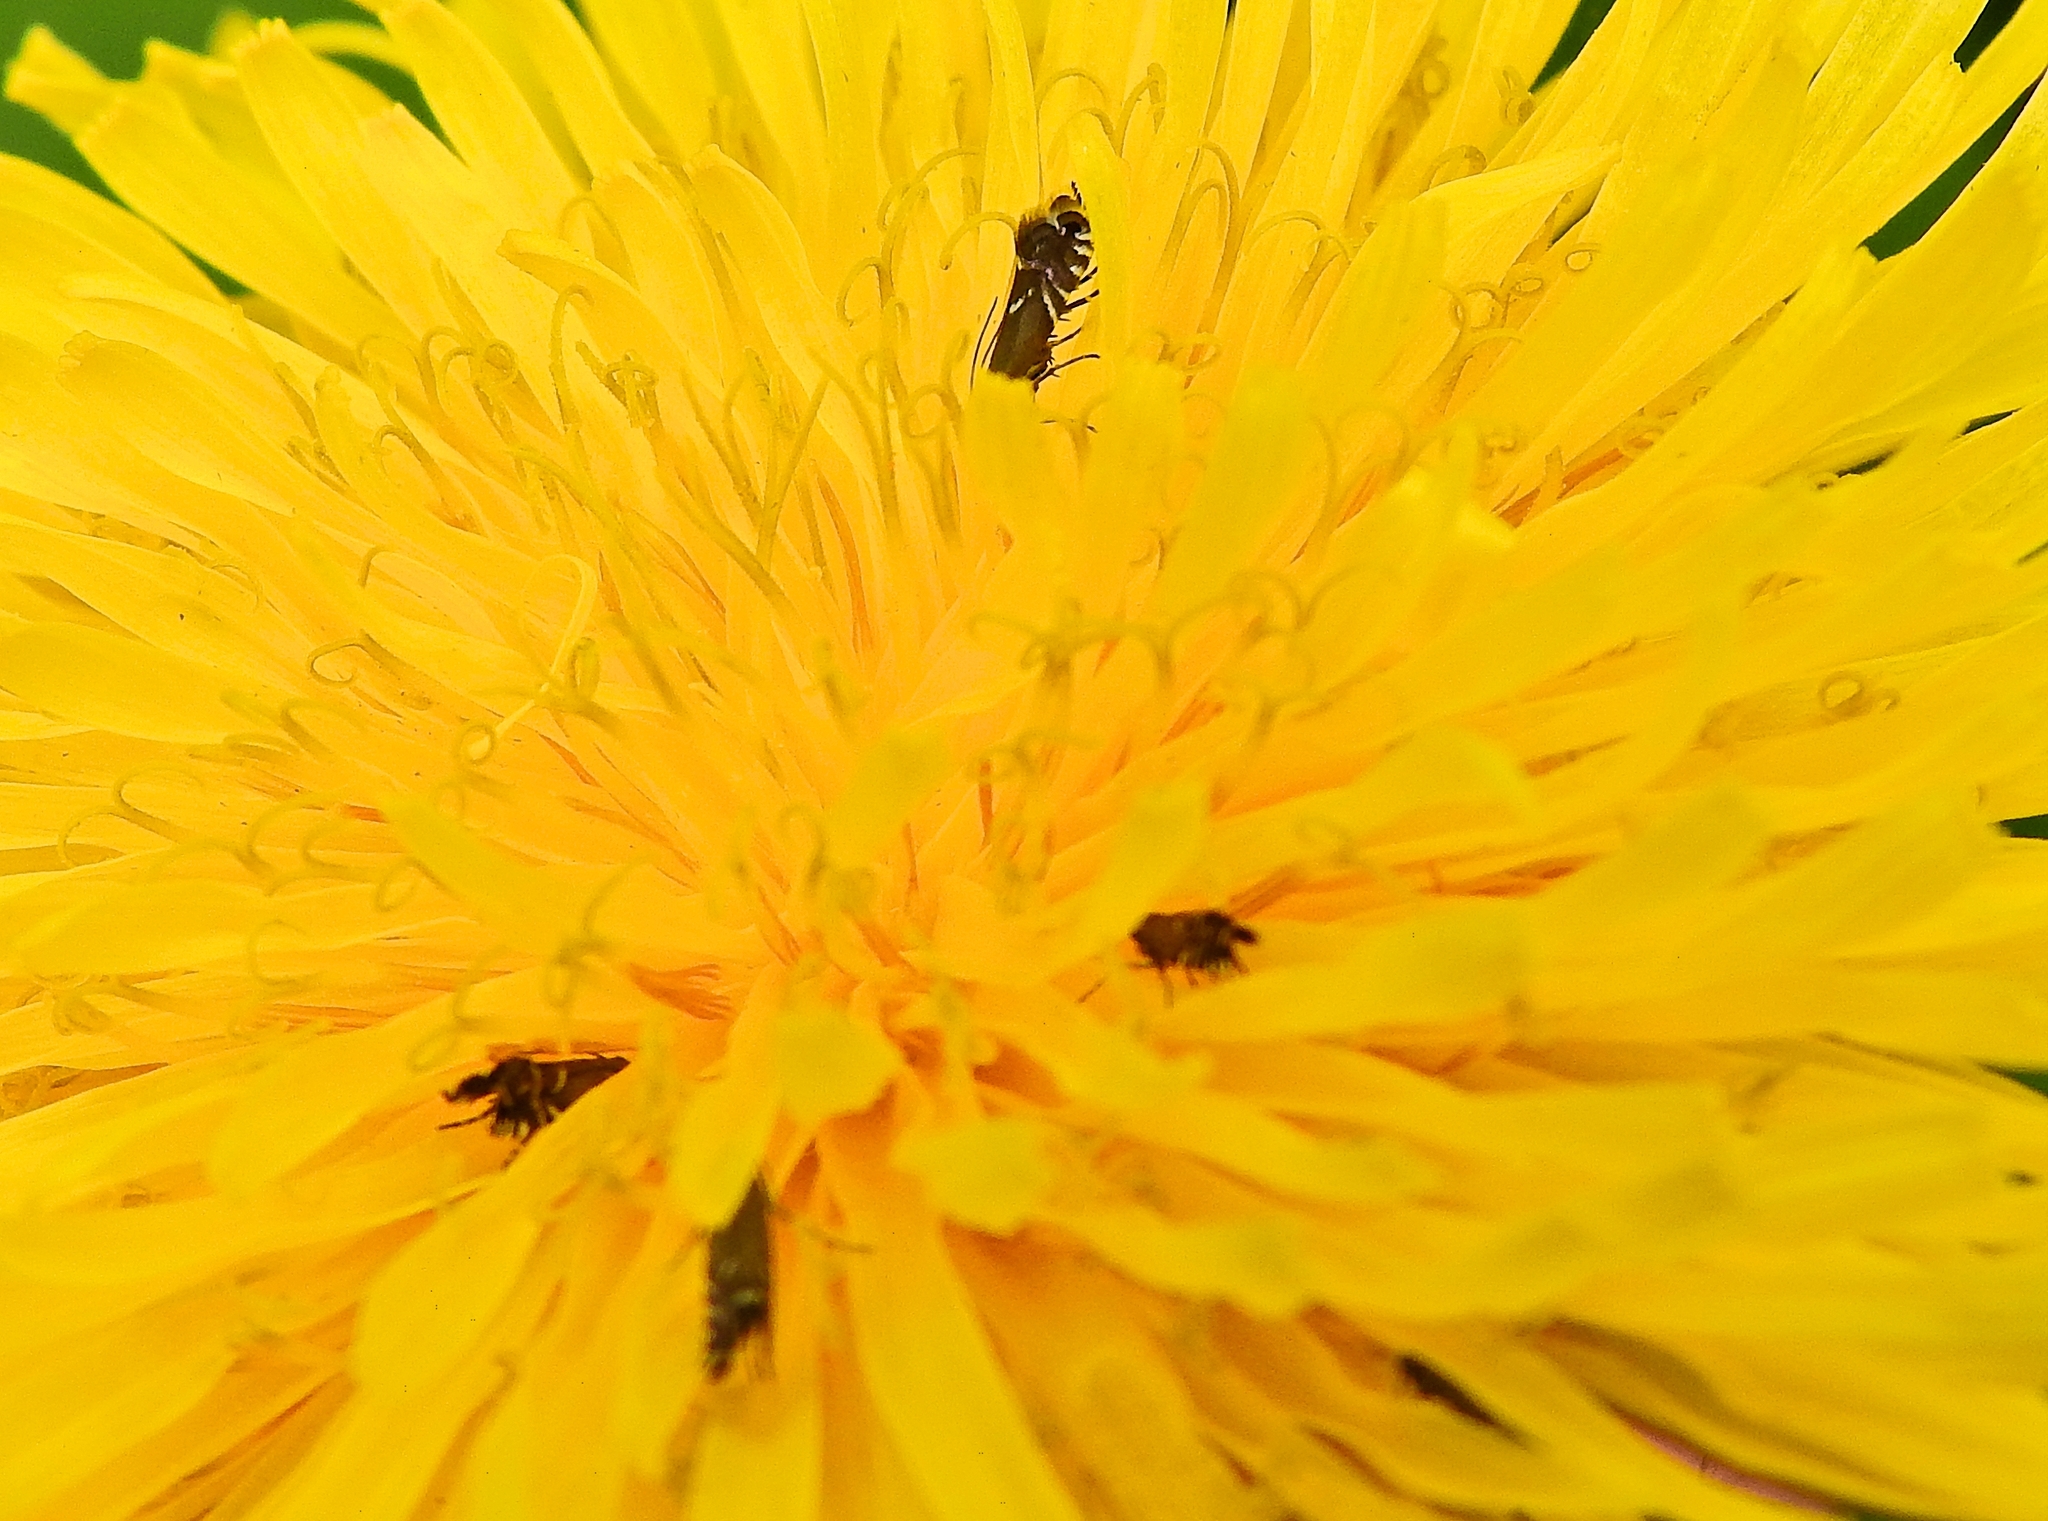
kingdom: Animalia
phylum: Arthropoda
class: Insecta
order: Lepidoptera
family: Glyphipterigidae
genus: Glyphipterix
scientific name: Glyphipterix simpliciella
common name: Cocksfoot moth
